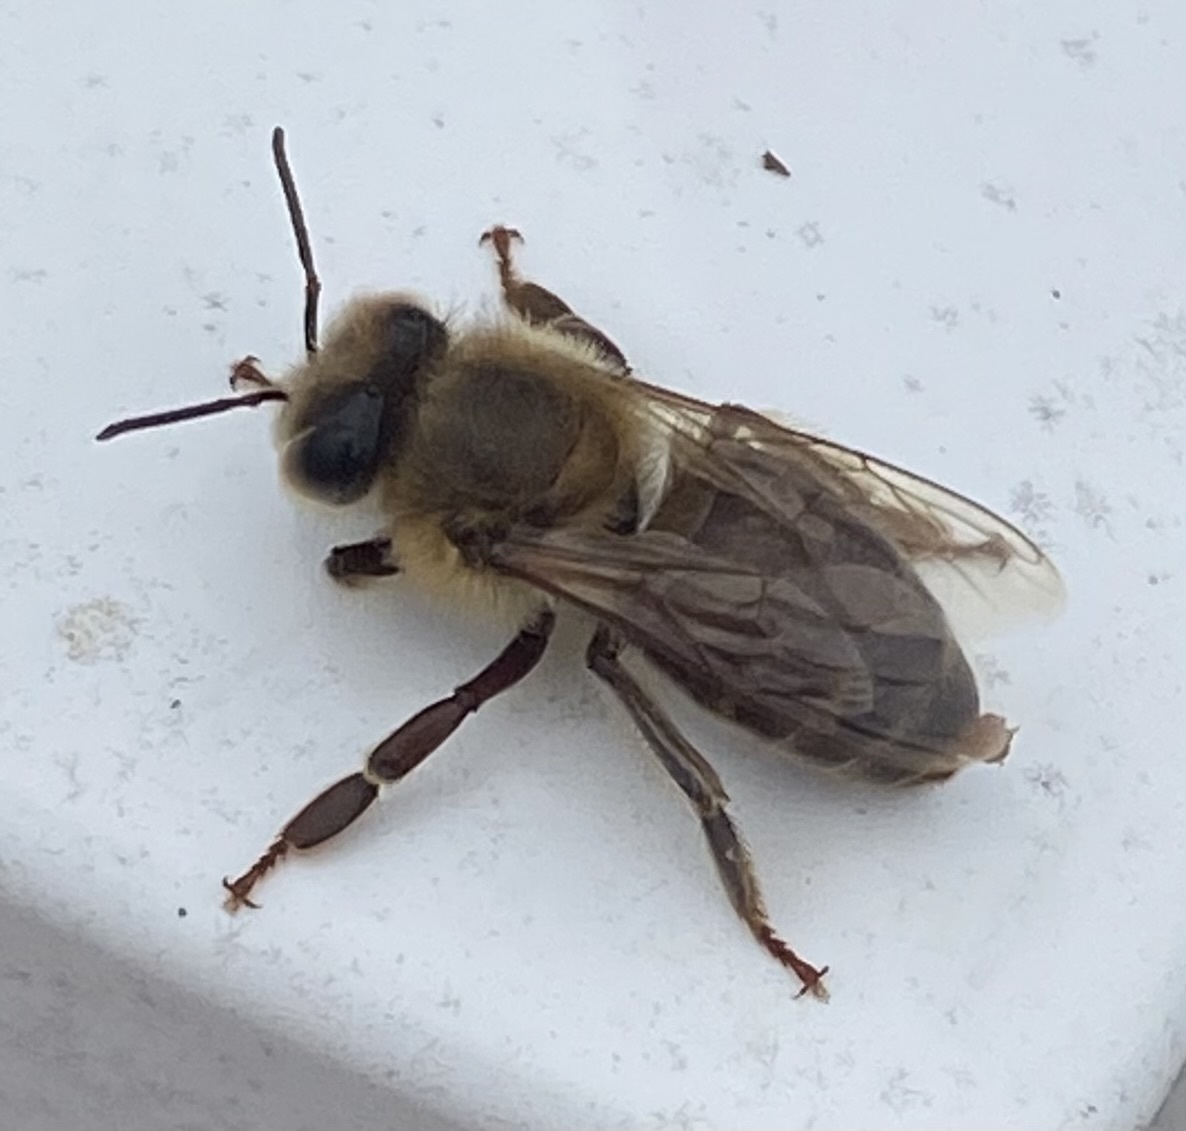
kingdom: Animalia
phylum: Arthropoda
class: Insecta
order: Hymenoptera
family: Apidae
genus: Apis
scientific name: Apis mellifera
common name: Honey bee
